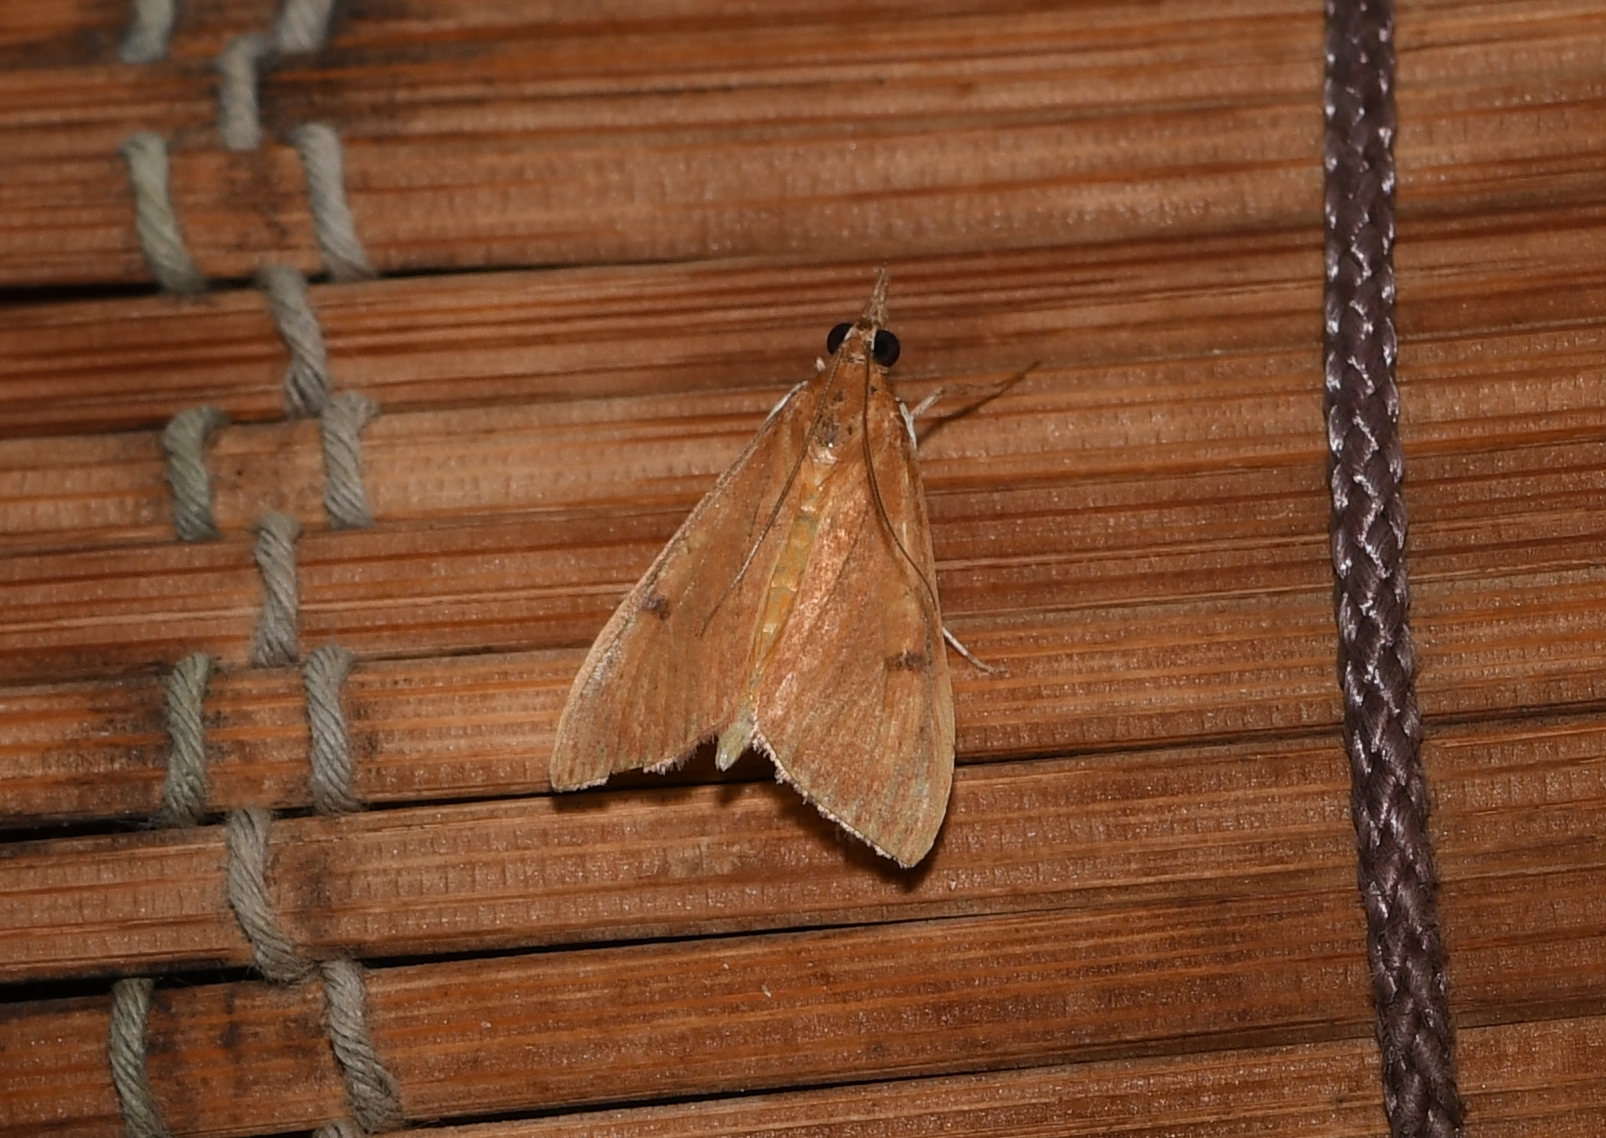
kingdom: Animalia
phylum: Arthropoda
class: Insecta
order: Lepidoptera
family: Crambidae
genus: Uresiphita
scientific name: Uresiphita reversalis
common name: Genista broom moth
